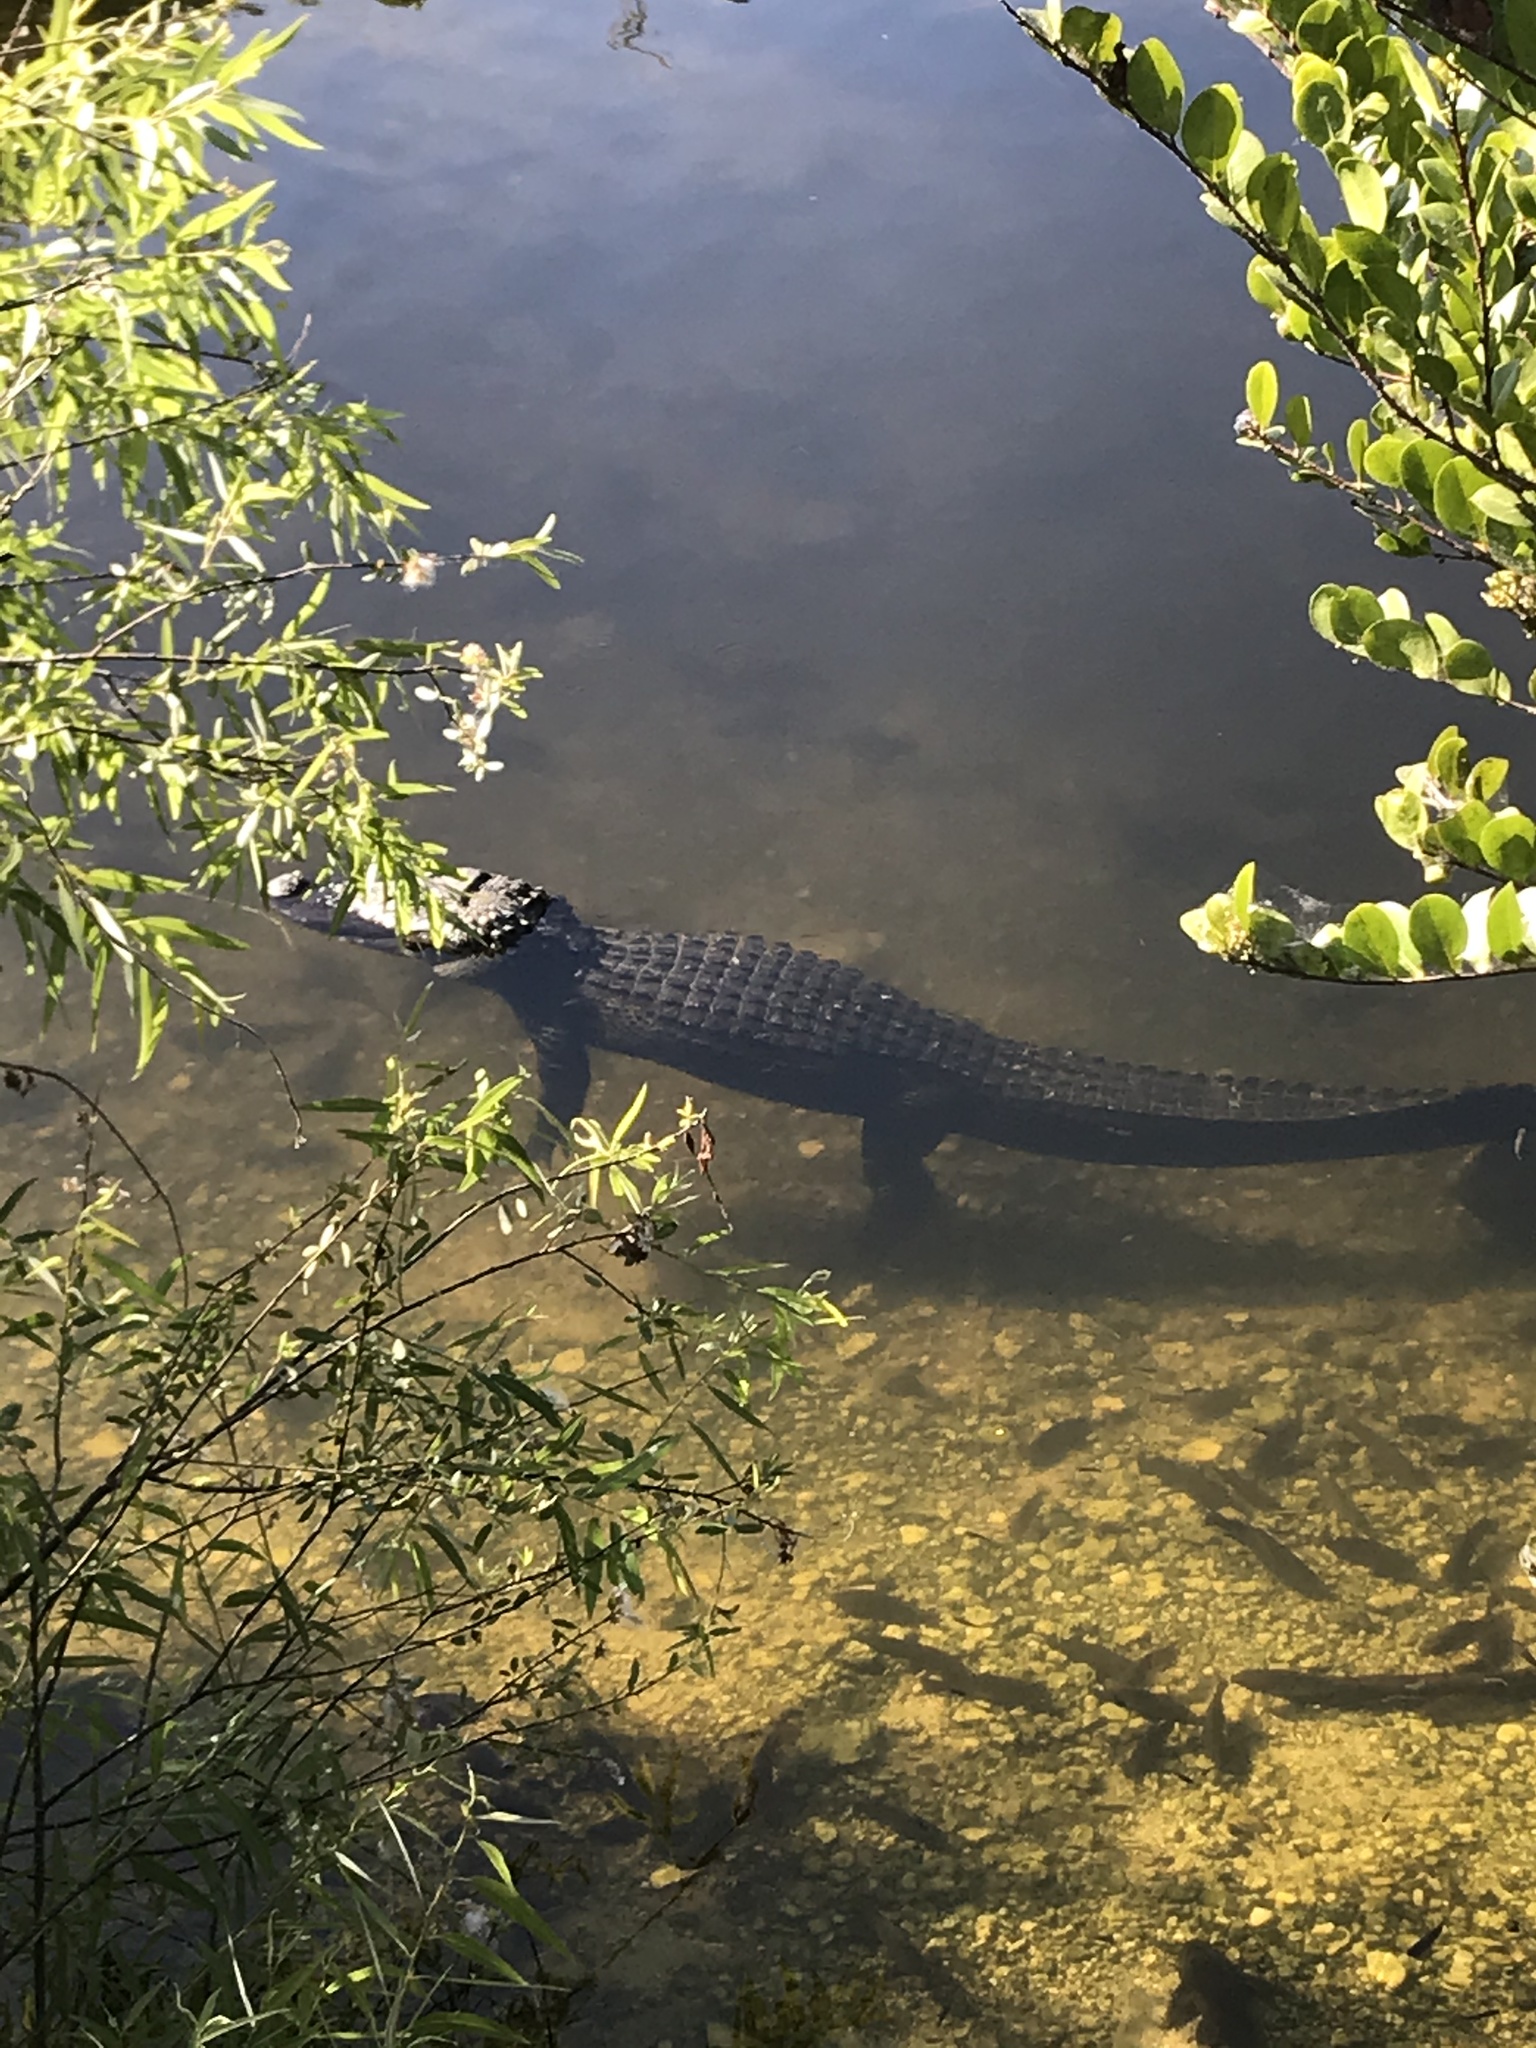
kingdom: Animalia
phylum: Chordata
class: Crocodylia
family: Alligatoridae
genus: Alligator
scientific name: Alligator mississippiensis
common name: American alligator
